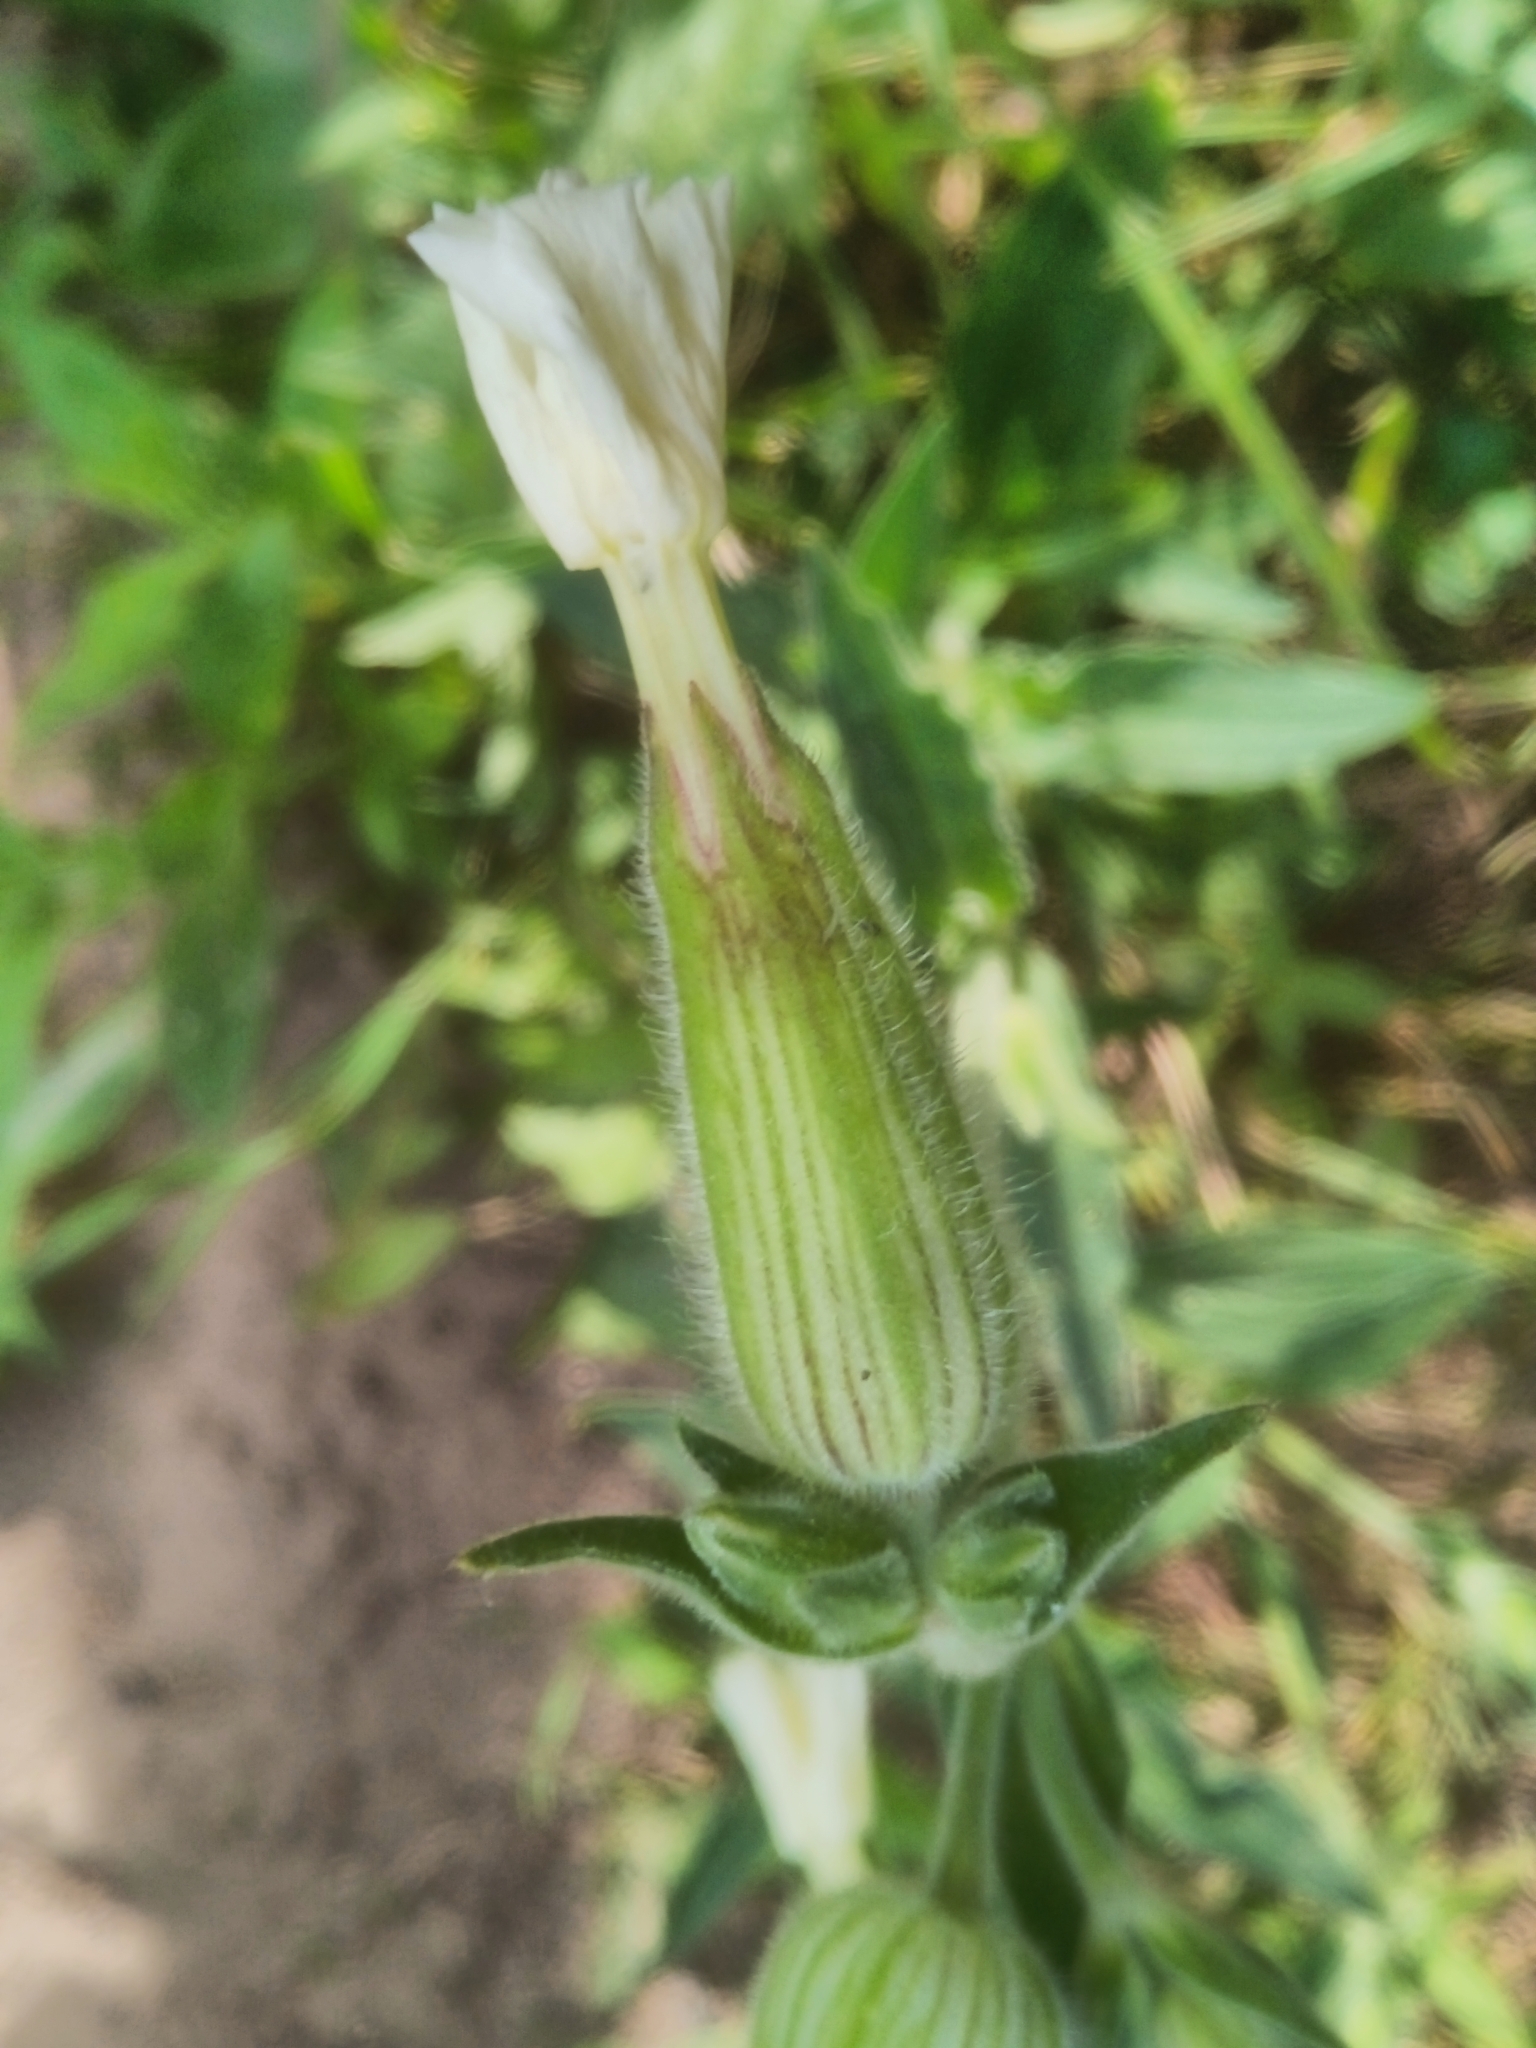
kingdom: Plantae
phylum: Tracheophyta
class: Magnoliopsida
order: Caryophyllales
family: Caryophyllaceae
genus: Silene
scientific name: Silene latifolia
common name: White campion
